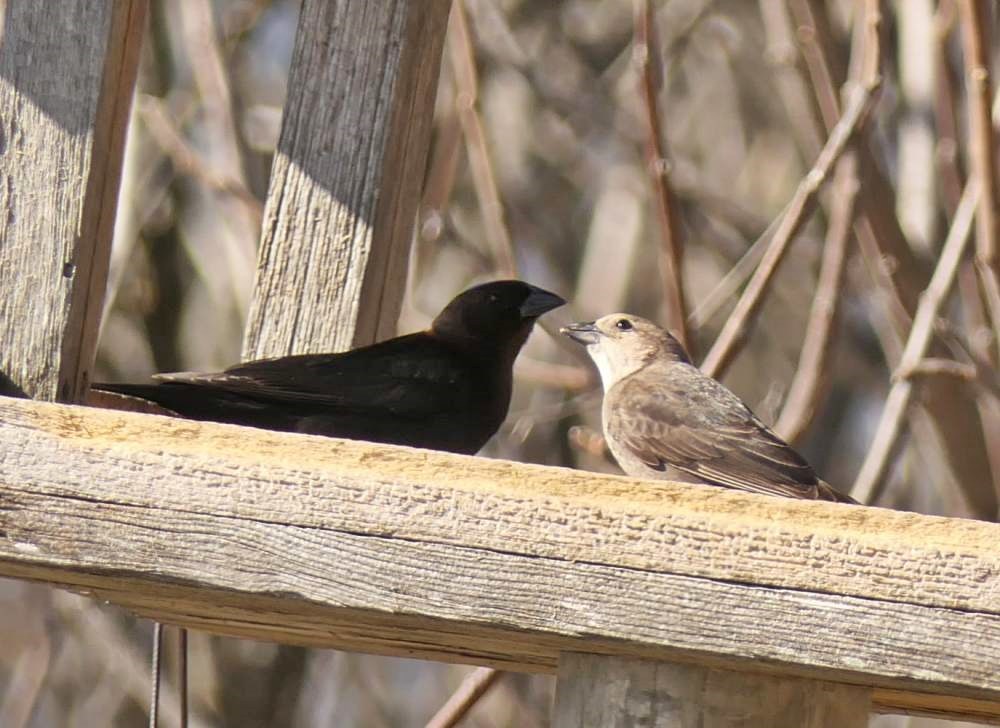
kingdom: Animalia
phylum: Chordata
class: Aves
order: Passeriformes
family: Icteridae
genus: Molothrus
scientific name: Molothrus ater
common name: Brown-headed cowbird
